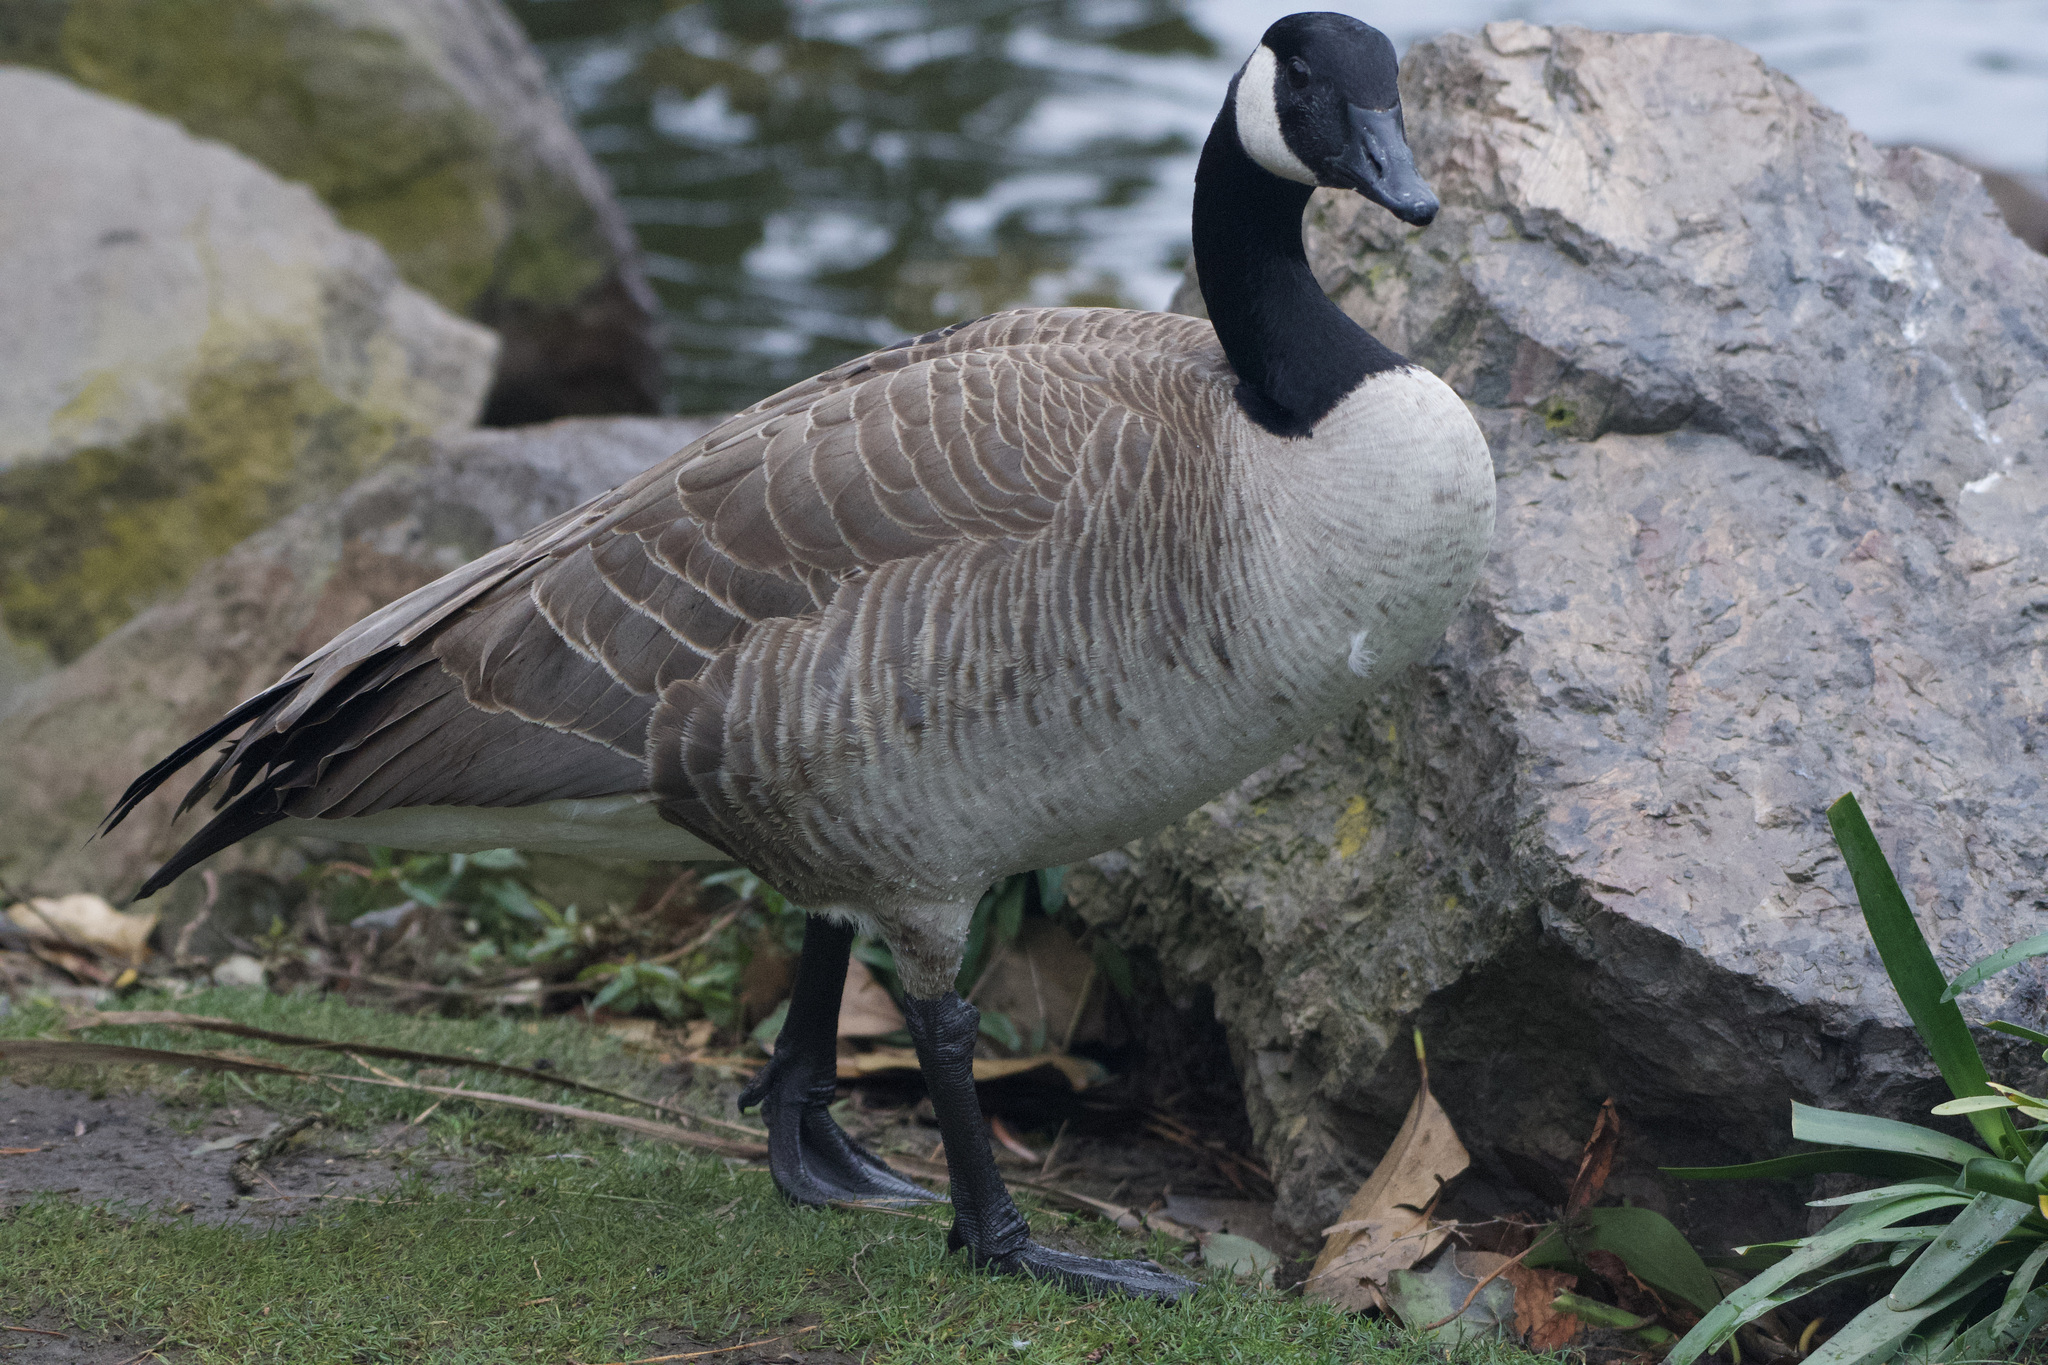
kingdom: Animalia
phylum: Chordata
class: Aves
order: Anseriformes
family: Anatidae
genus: Branta
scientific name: Branta canadensis
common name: Canada goose
